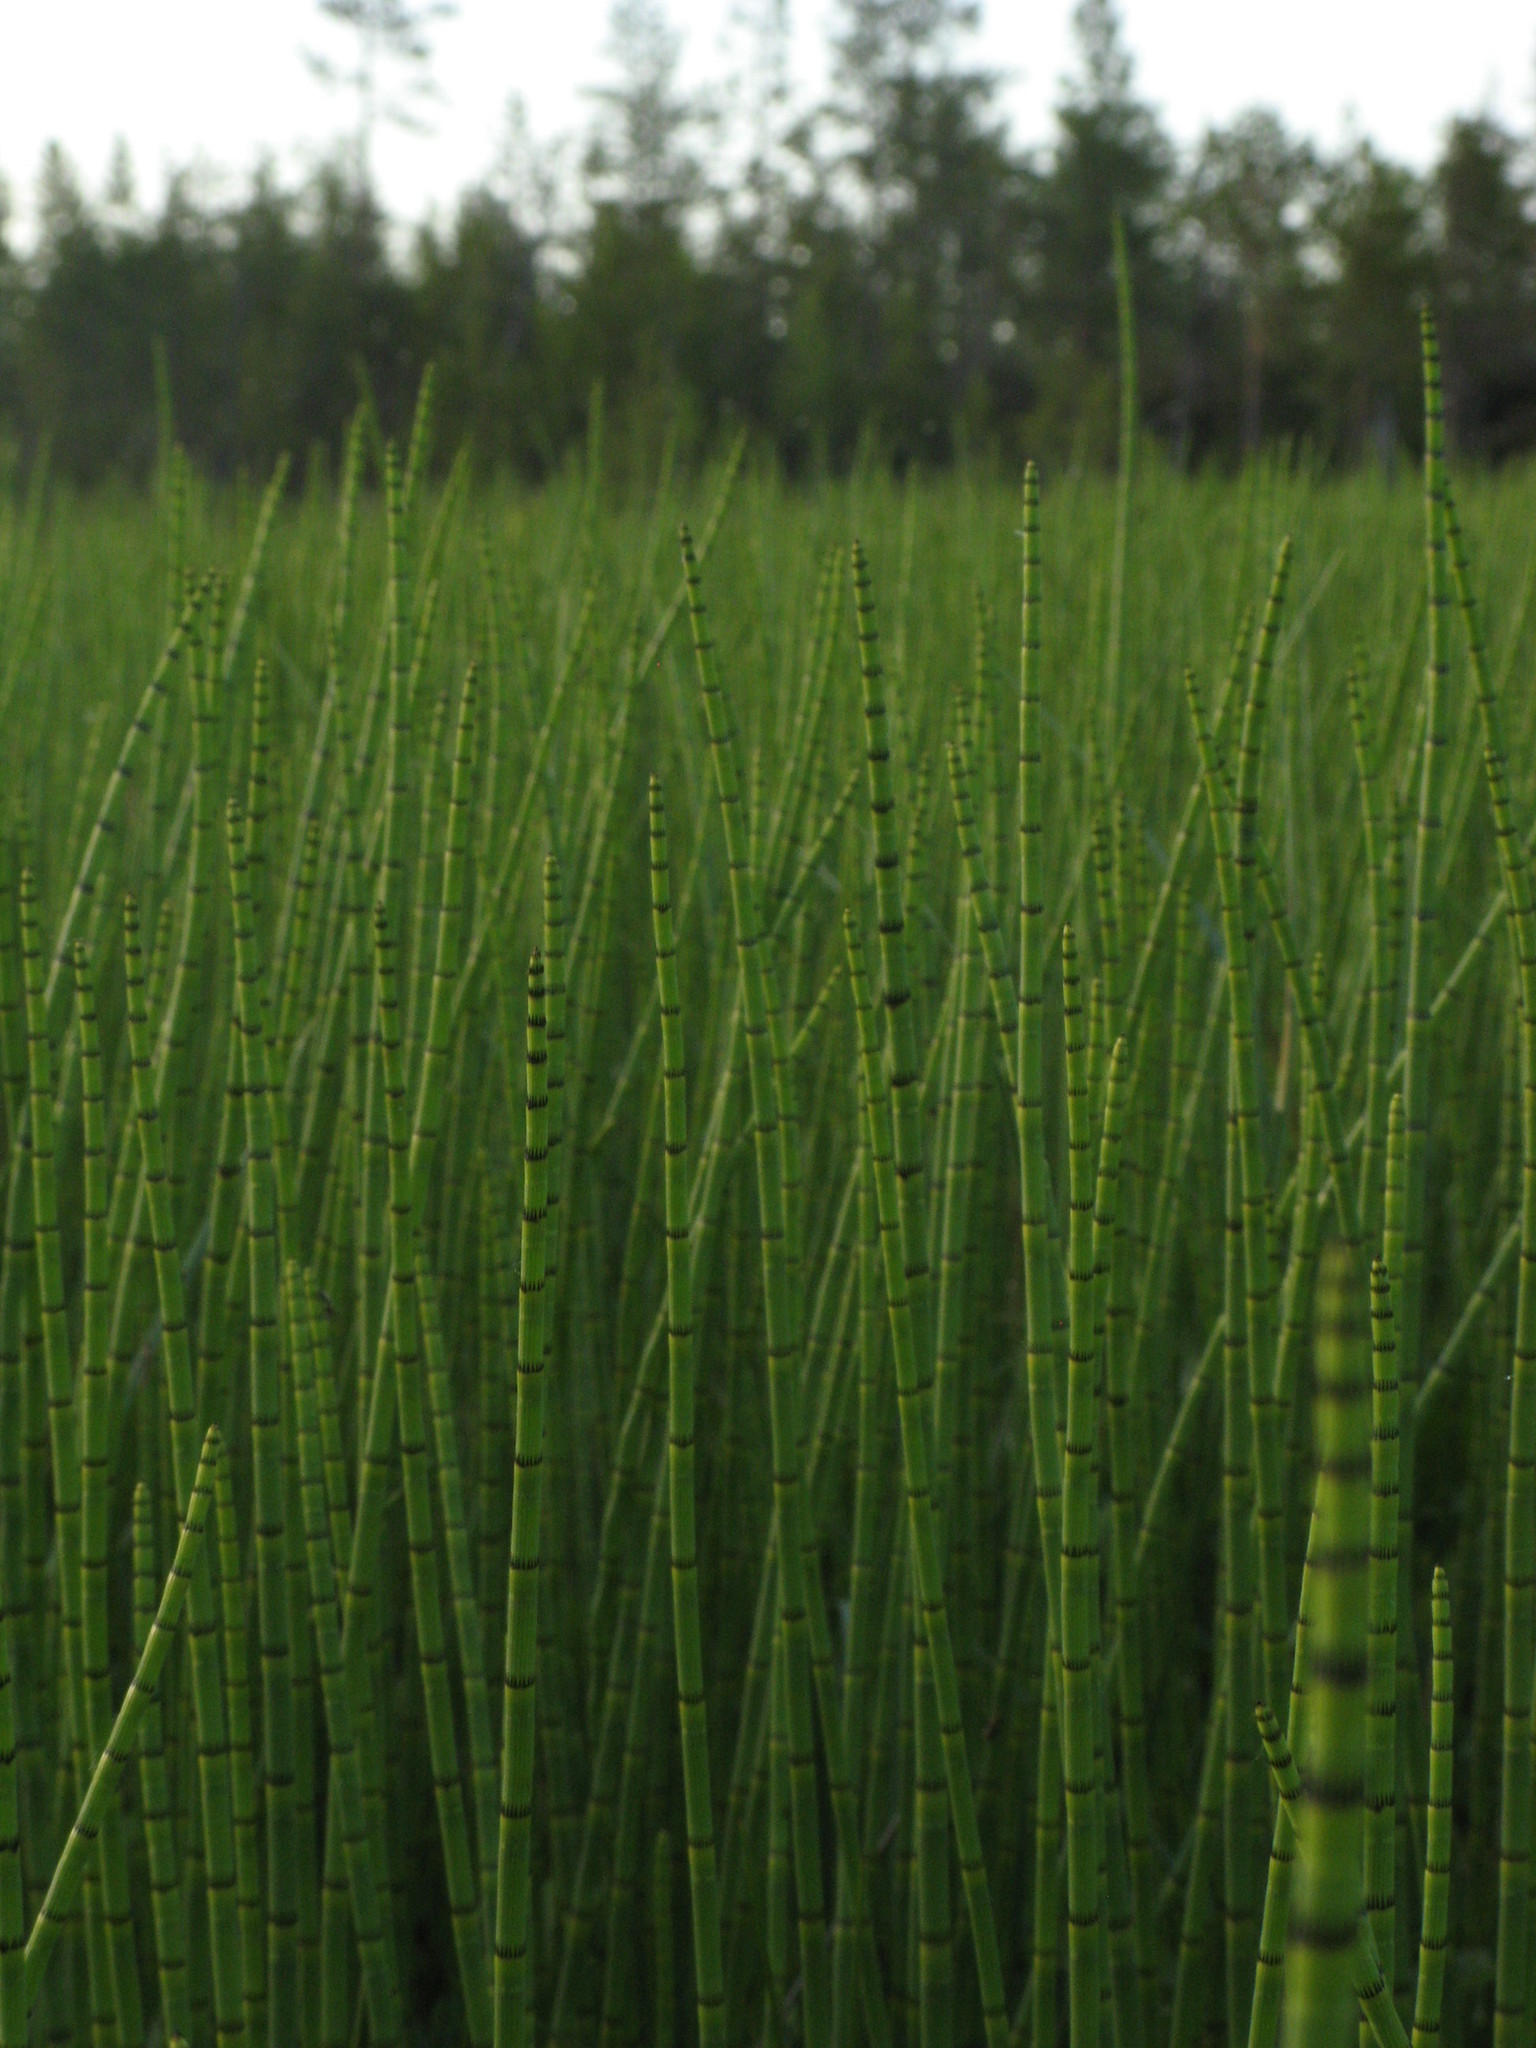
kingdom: Plantae
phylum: Tracheophyta
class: Polypodiopsida
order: Equisetales
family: Equisetaceae
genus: Equisetum
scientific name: Equisetum fluviatile
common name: Water horsetail
